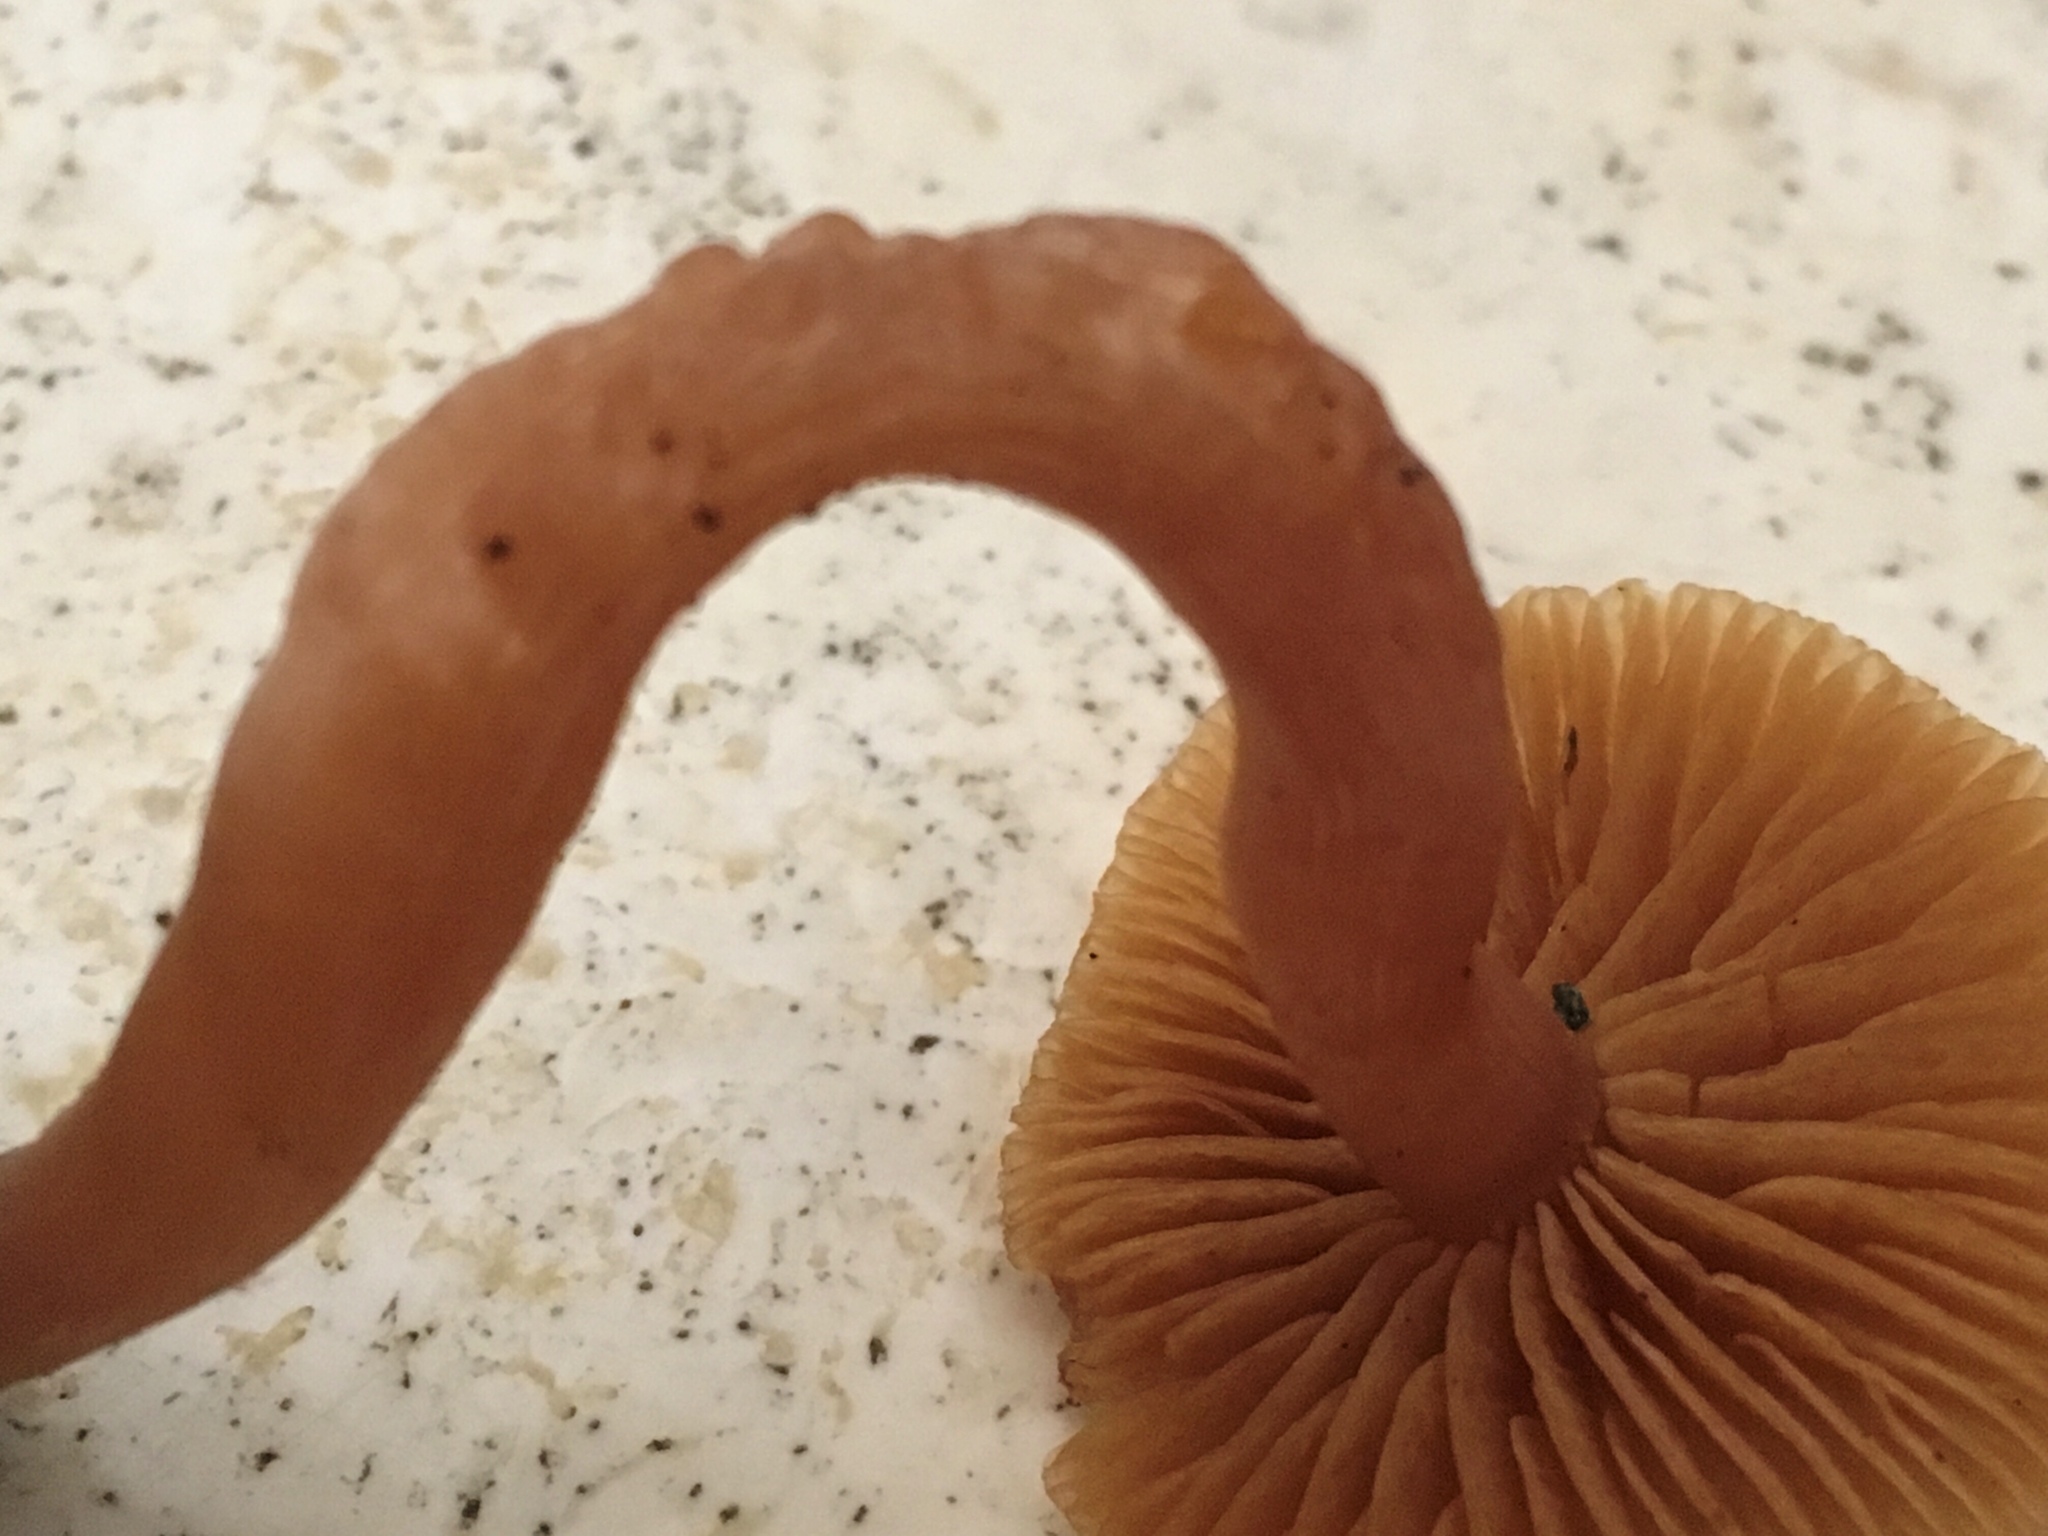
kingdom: Fungi
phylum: Basidiomycota
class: Agaricomycetes
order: Agaricales
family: Tubariaceae
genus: Tubaria
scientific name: Tubaria furfuracea
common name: Scurfy twiglet
